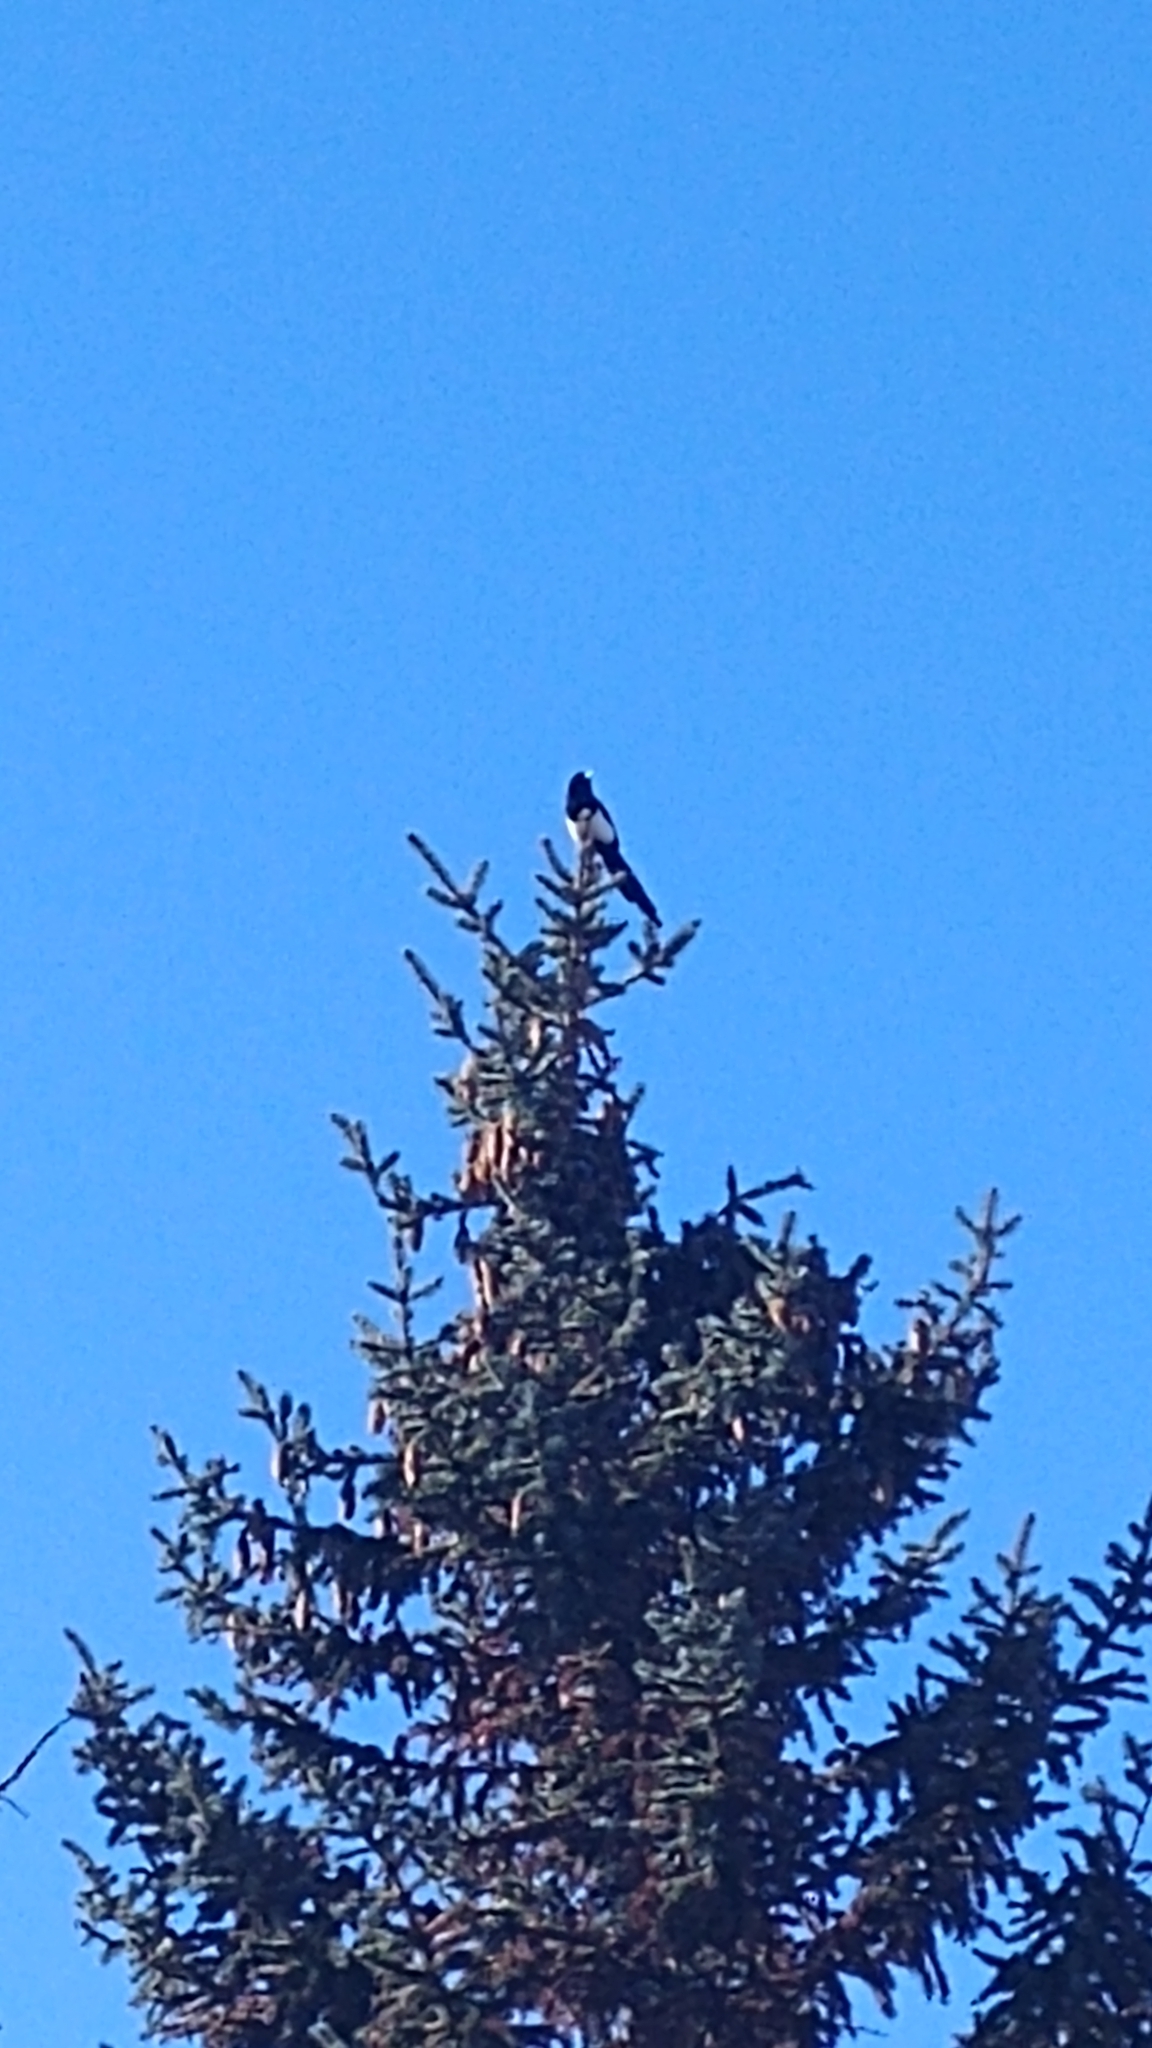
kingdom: Animalia
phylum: Chordata
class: Aves
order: Passeriformes
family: Corvidae
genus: Pica
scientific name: Pica hudsonia
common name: Black-billed magpie
